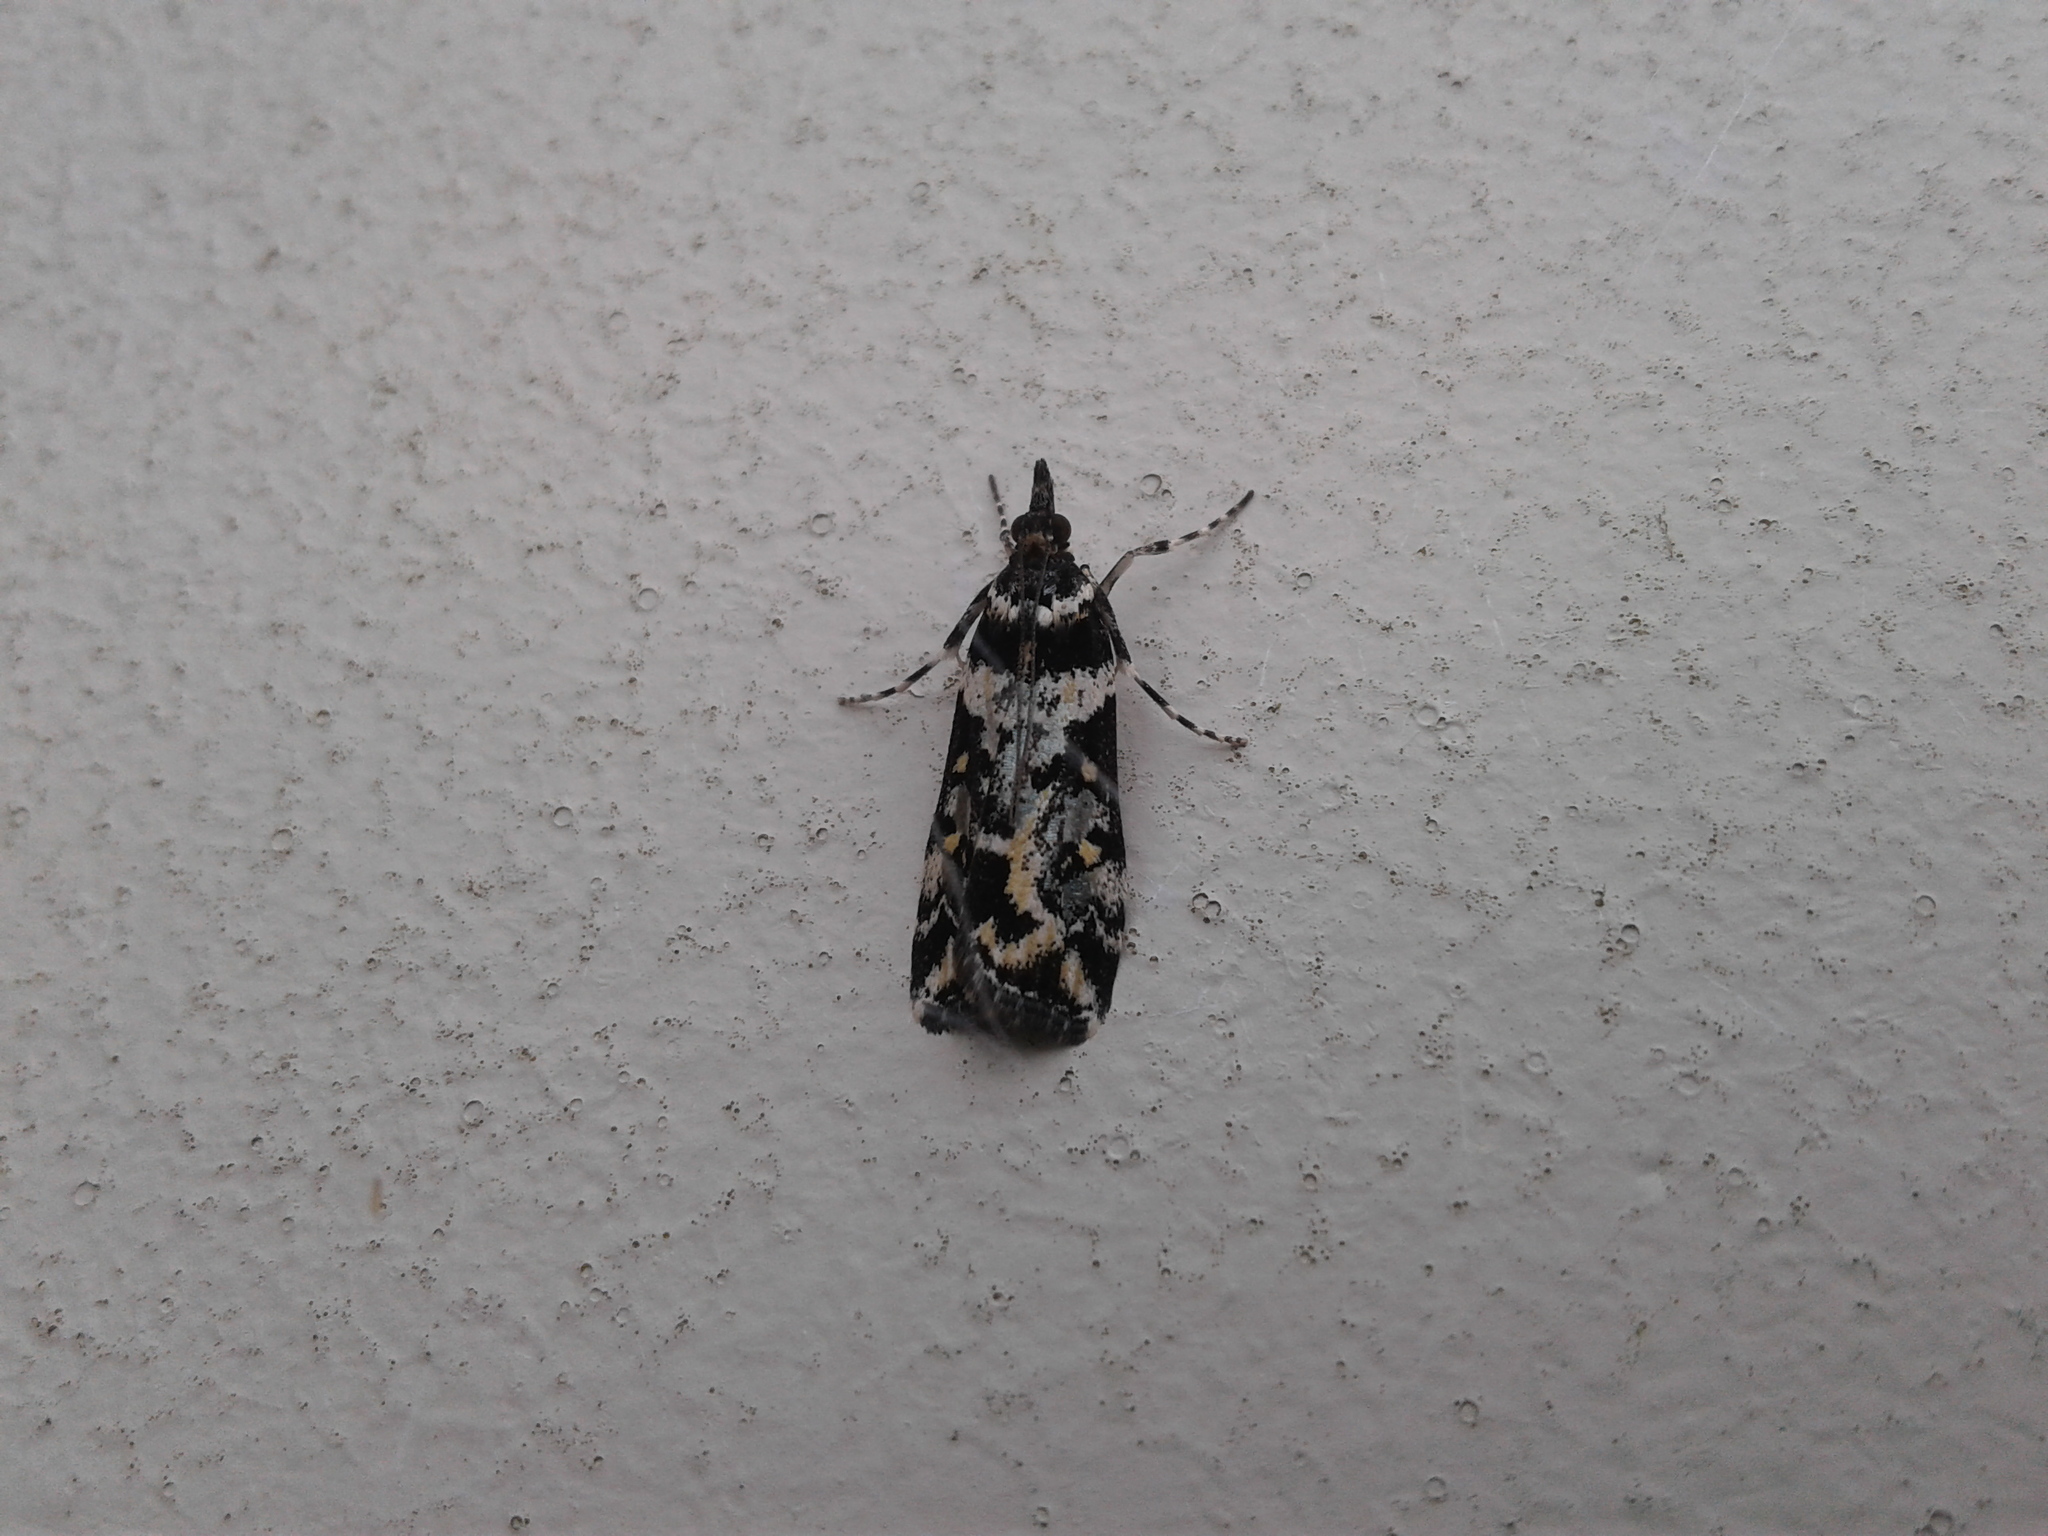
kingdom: Animalia
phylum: Arthropoda
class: Insecta
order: Lepidoptera
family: Crambidae
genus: Eudonia
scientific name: Eudonia diphtheralis
